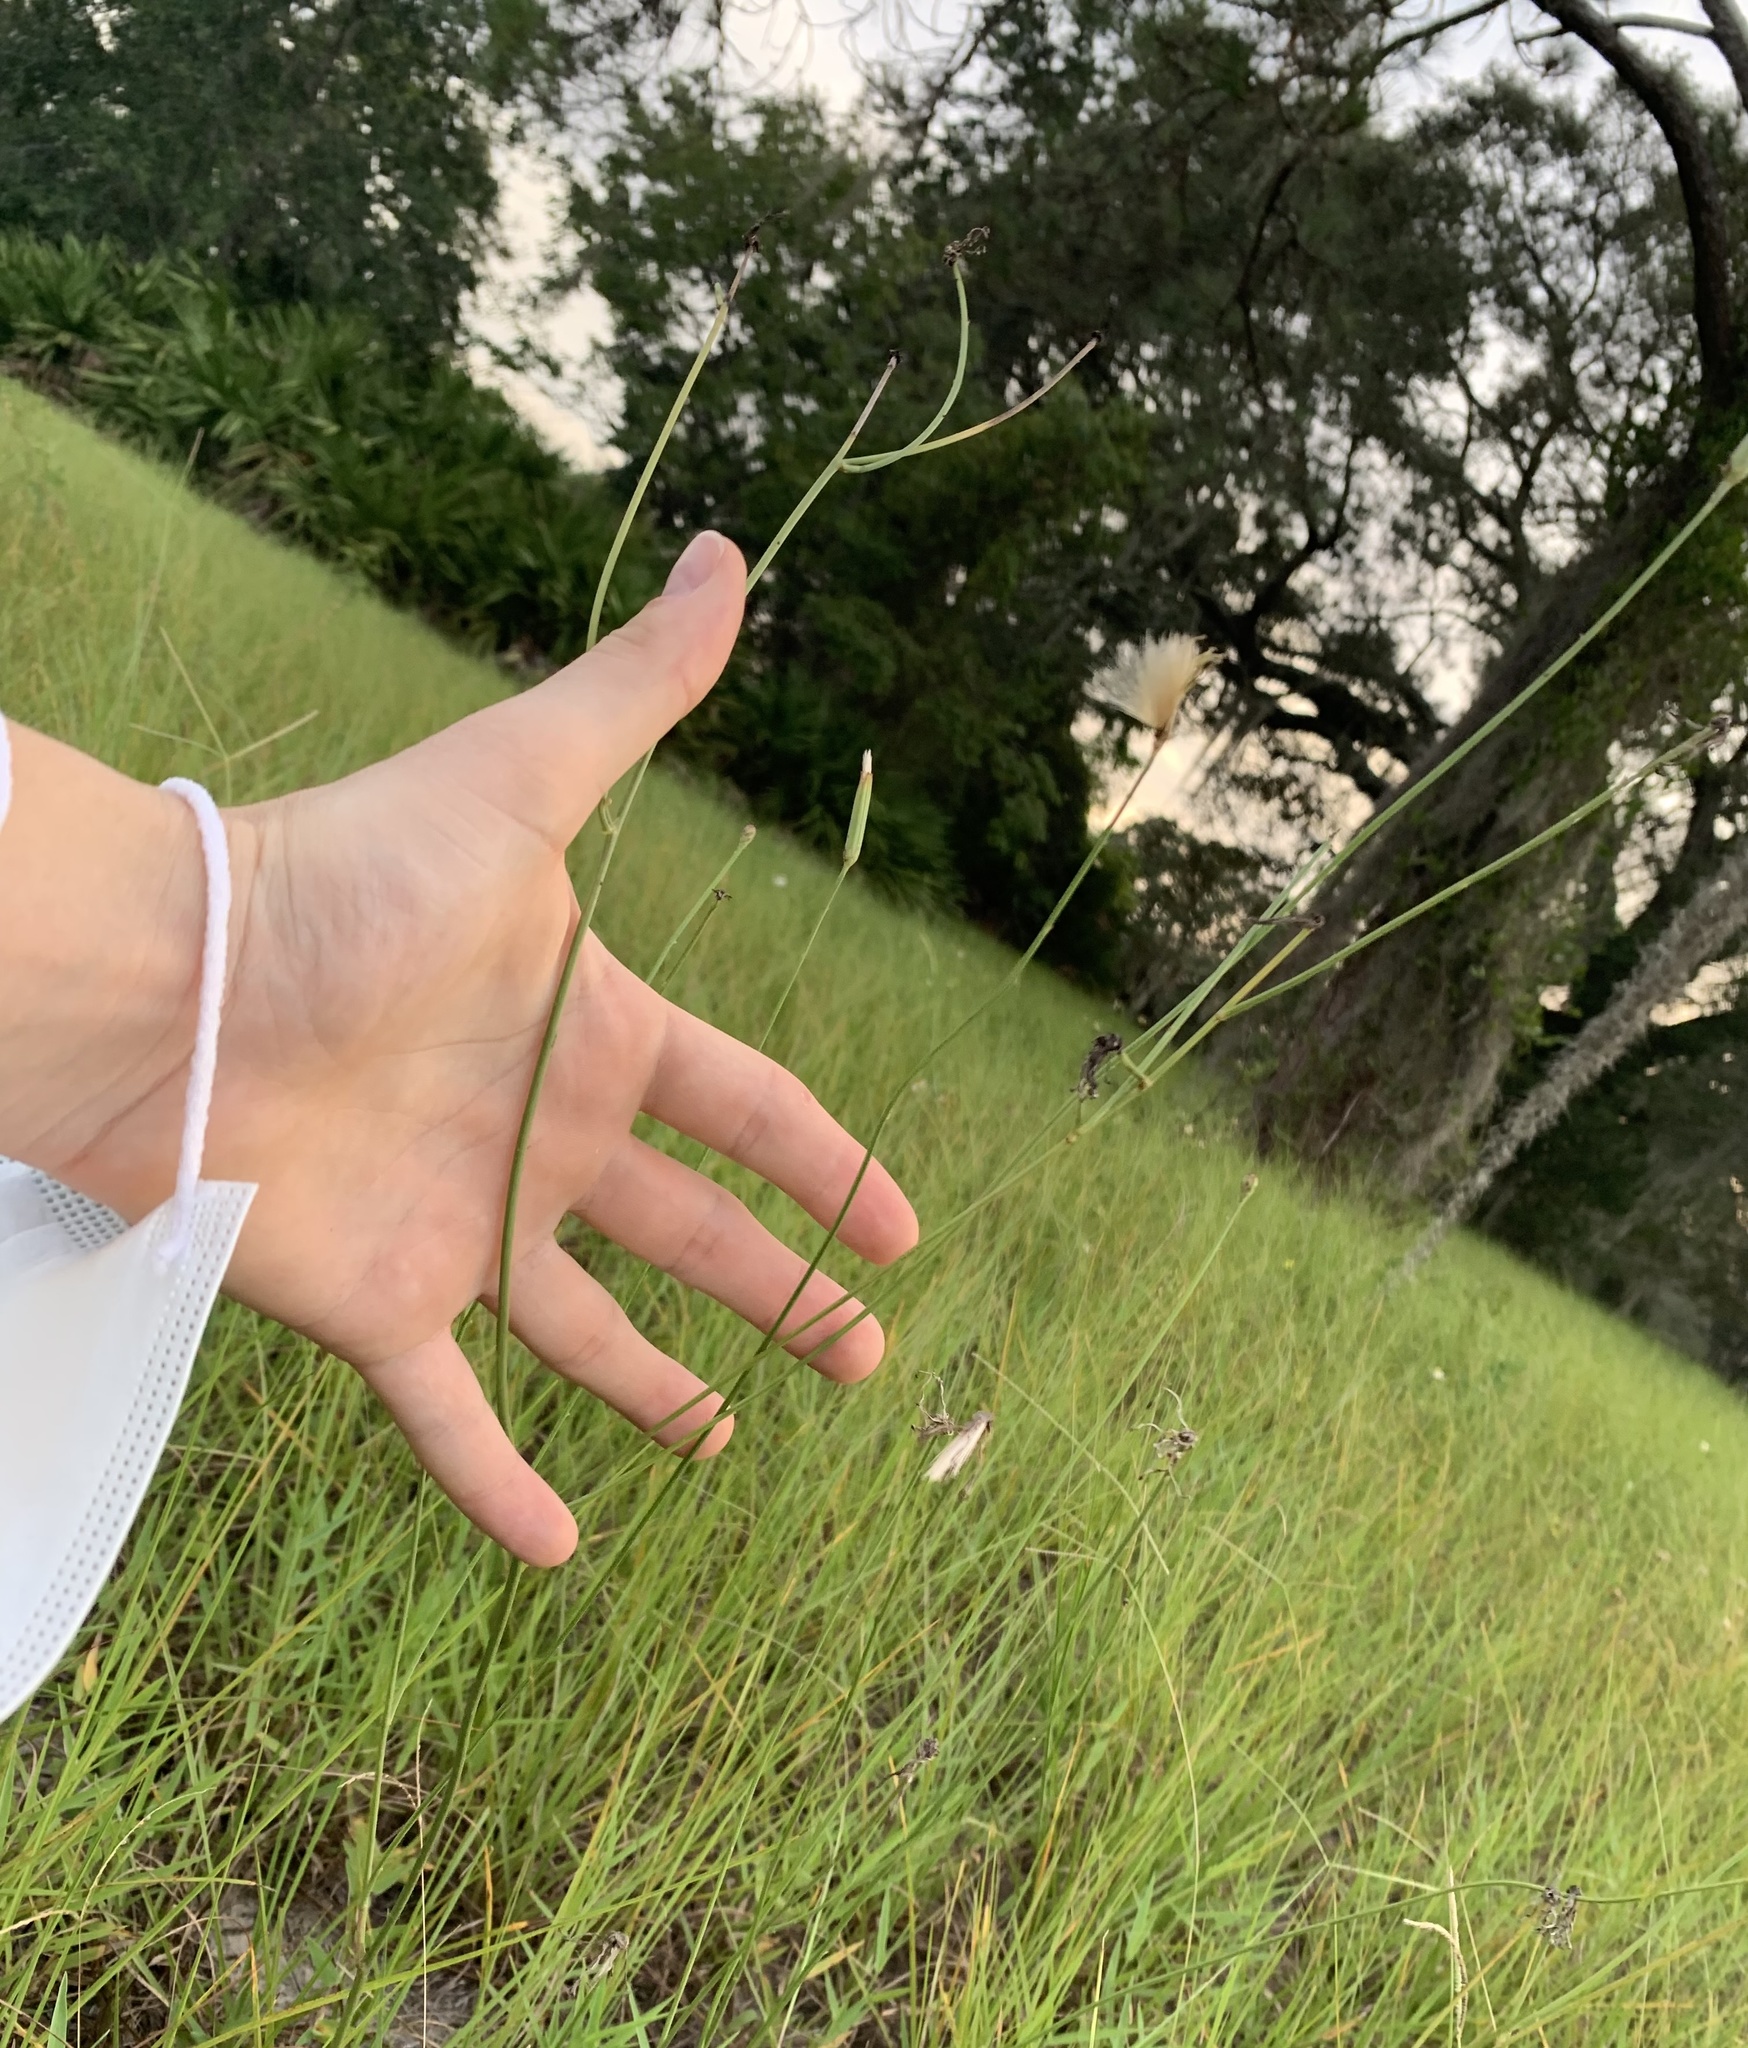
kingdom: Plantae
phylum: Tracheophyta
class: Magnoliopsida
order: Asterales
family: Asteraceae
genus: Lygodesmia
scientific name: Lygodesmia aphylla
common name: Rose-rush
